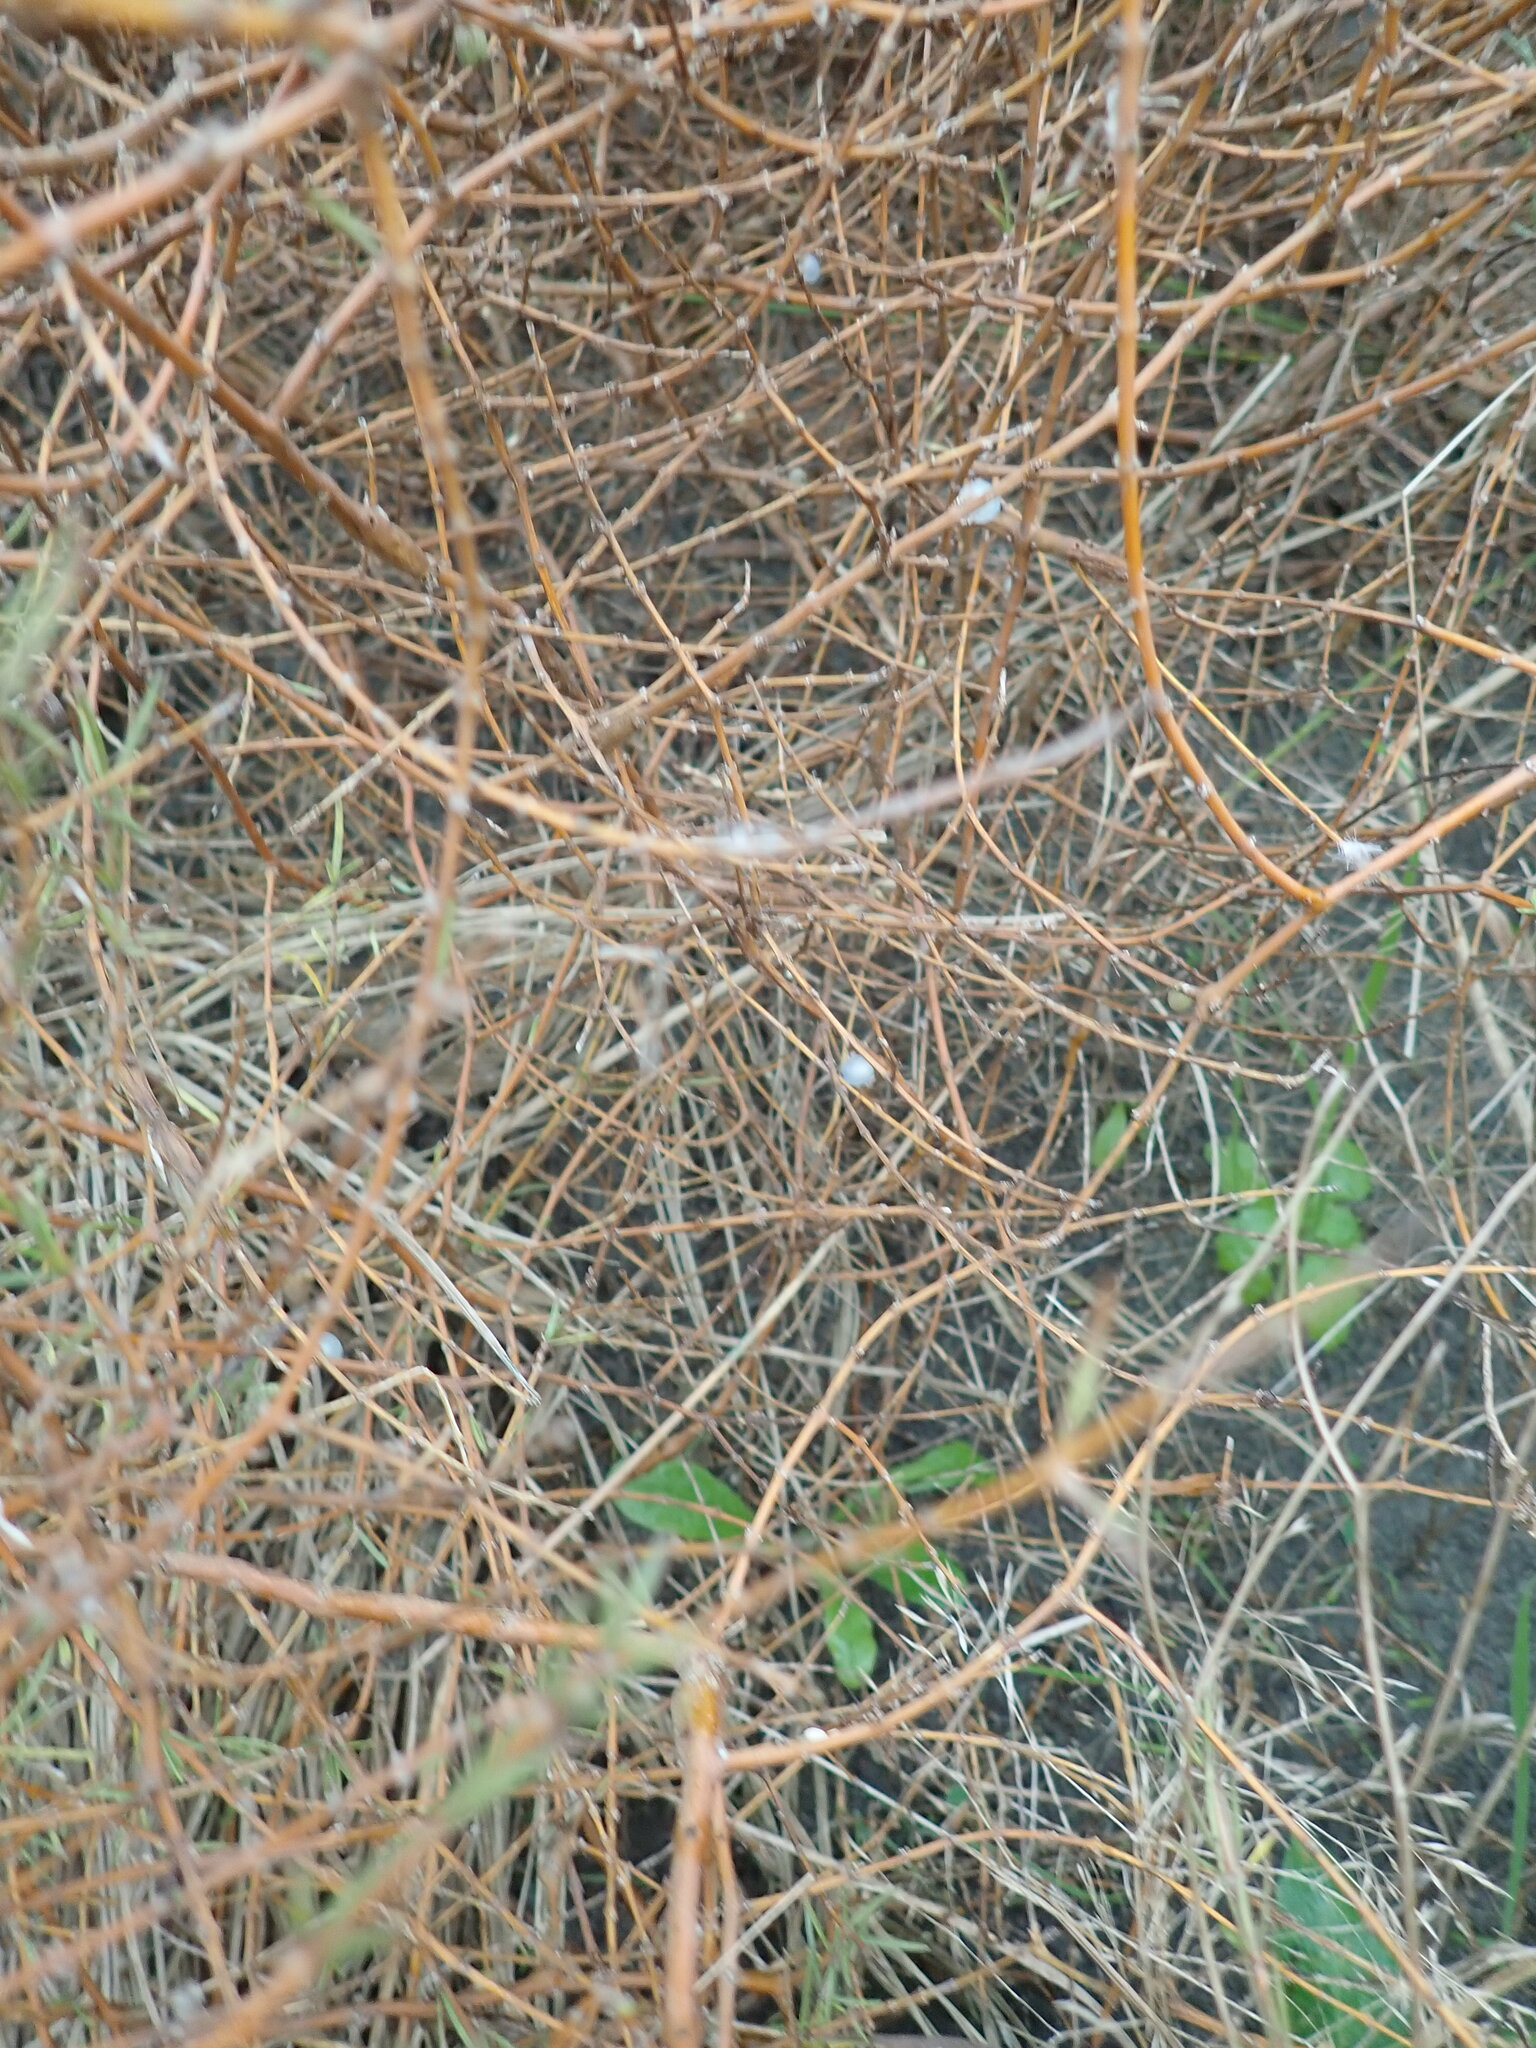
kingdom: Plantae
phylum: Tracheophyta
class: Magnoliopsida
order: Gentianales
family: Rubiaceae
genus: Coprosma
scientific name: Coprosma acerosa
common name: Sand coprosma
